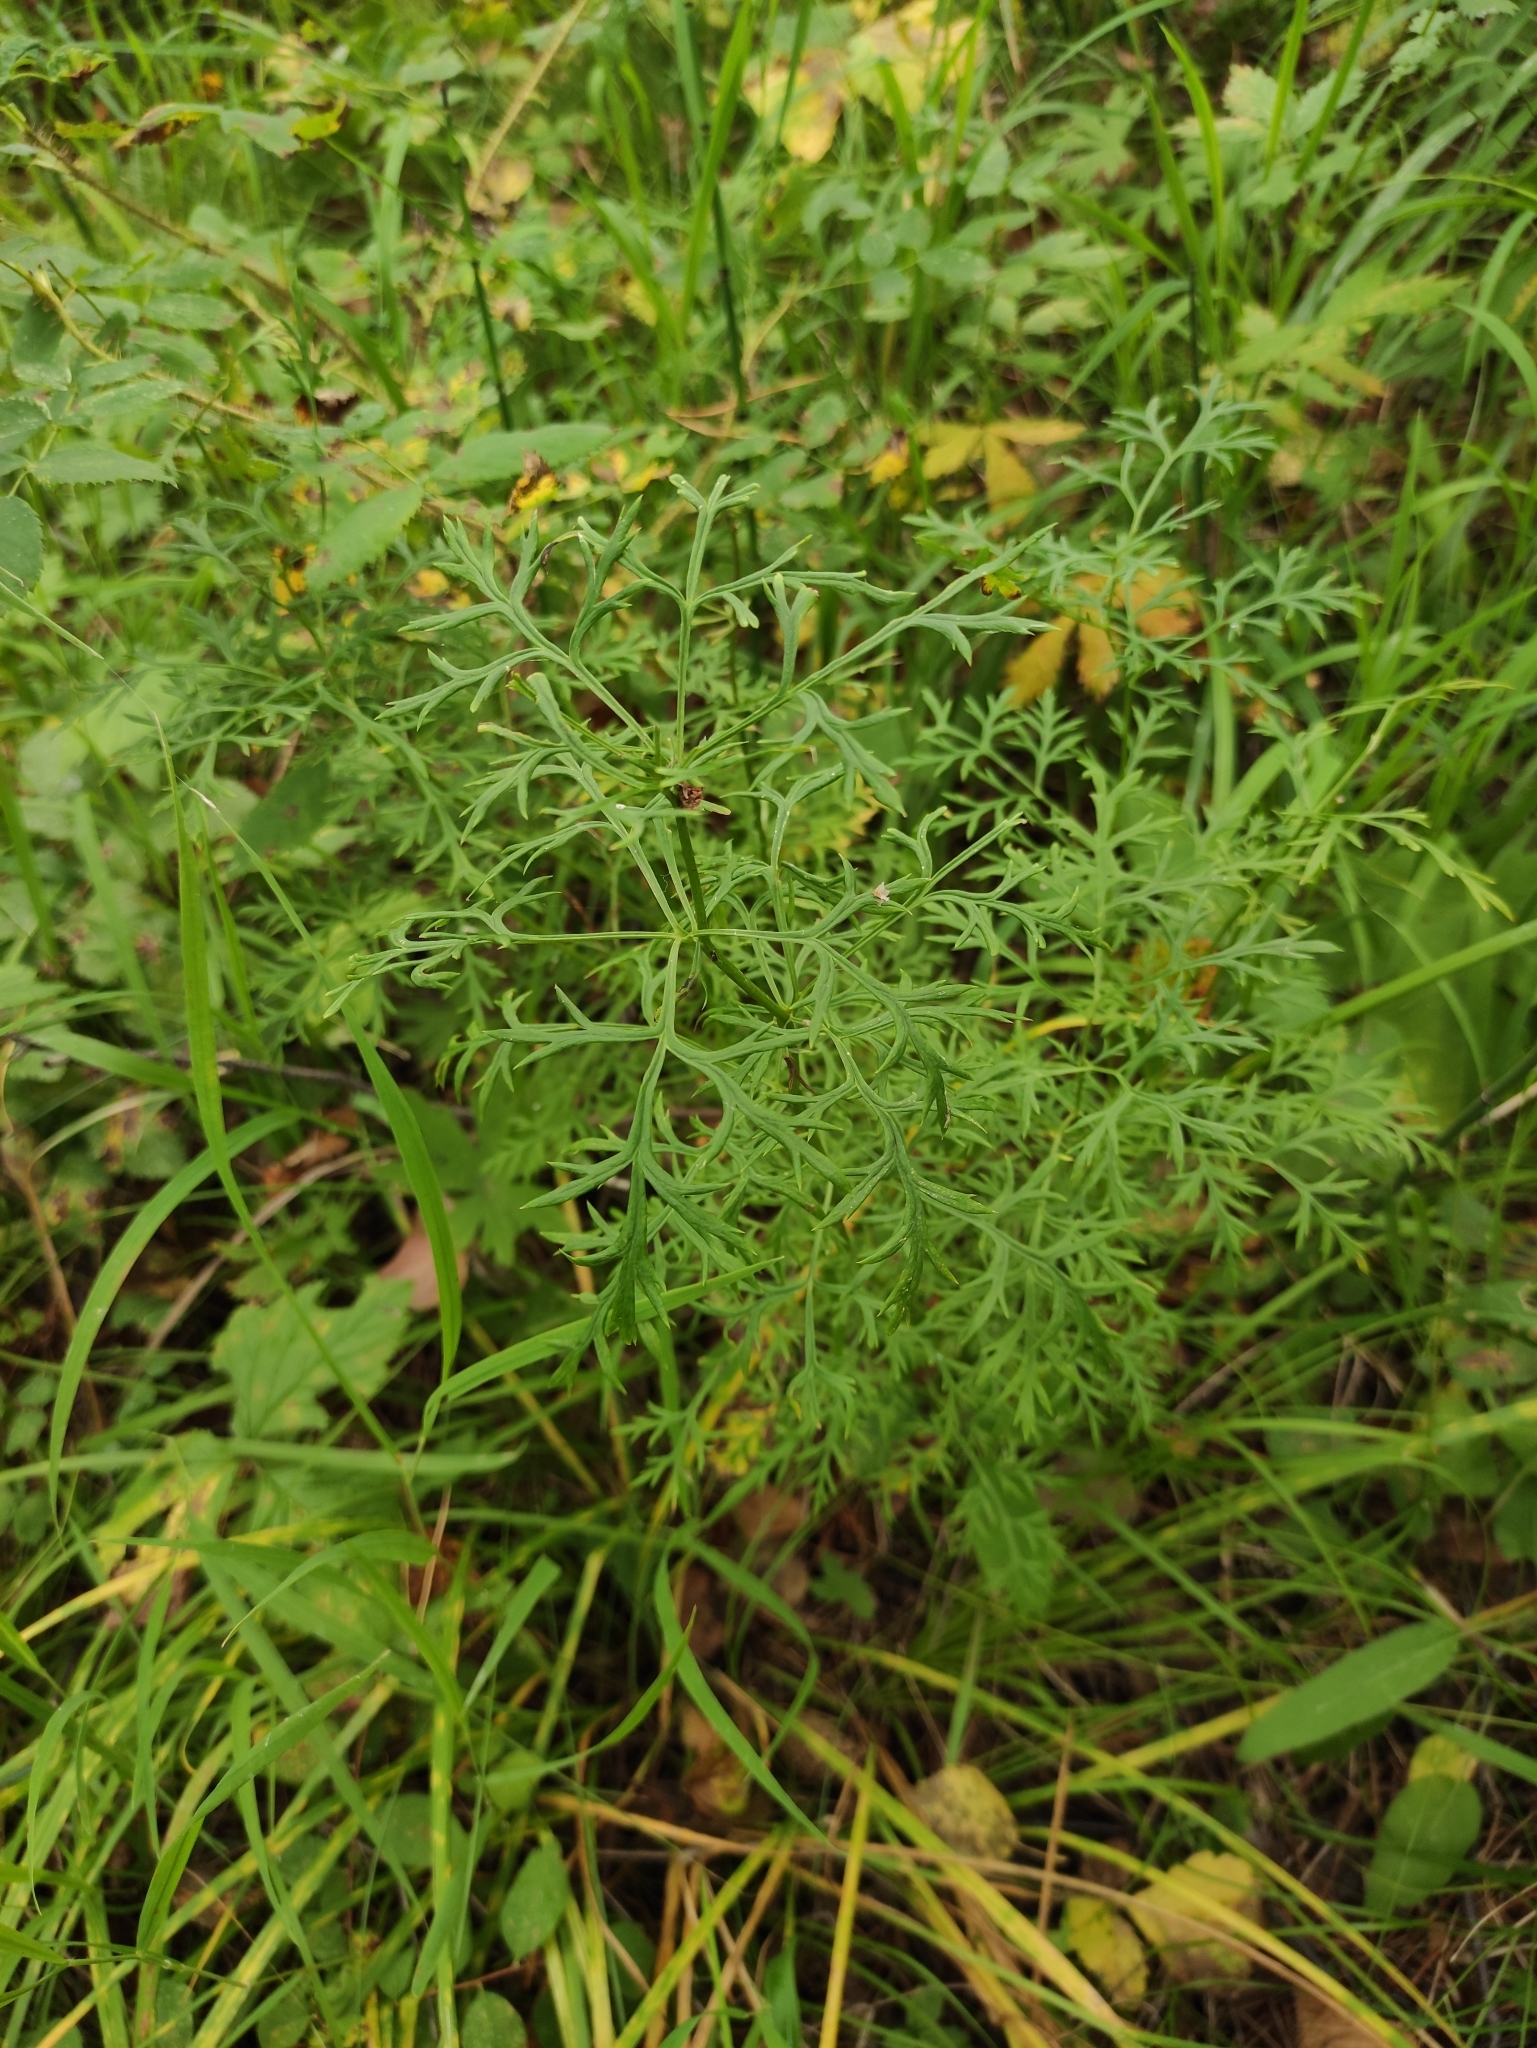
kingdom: Plantae
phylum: Tracheophyta
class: Magnoliopsida
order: Ranunculales
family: Ranunculaceae
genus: Adonis
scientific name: Adonis
